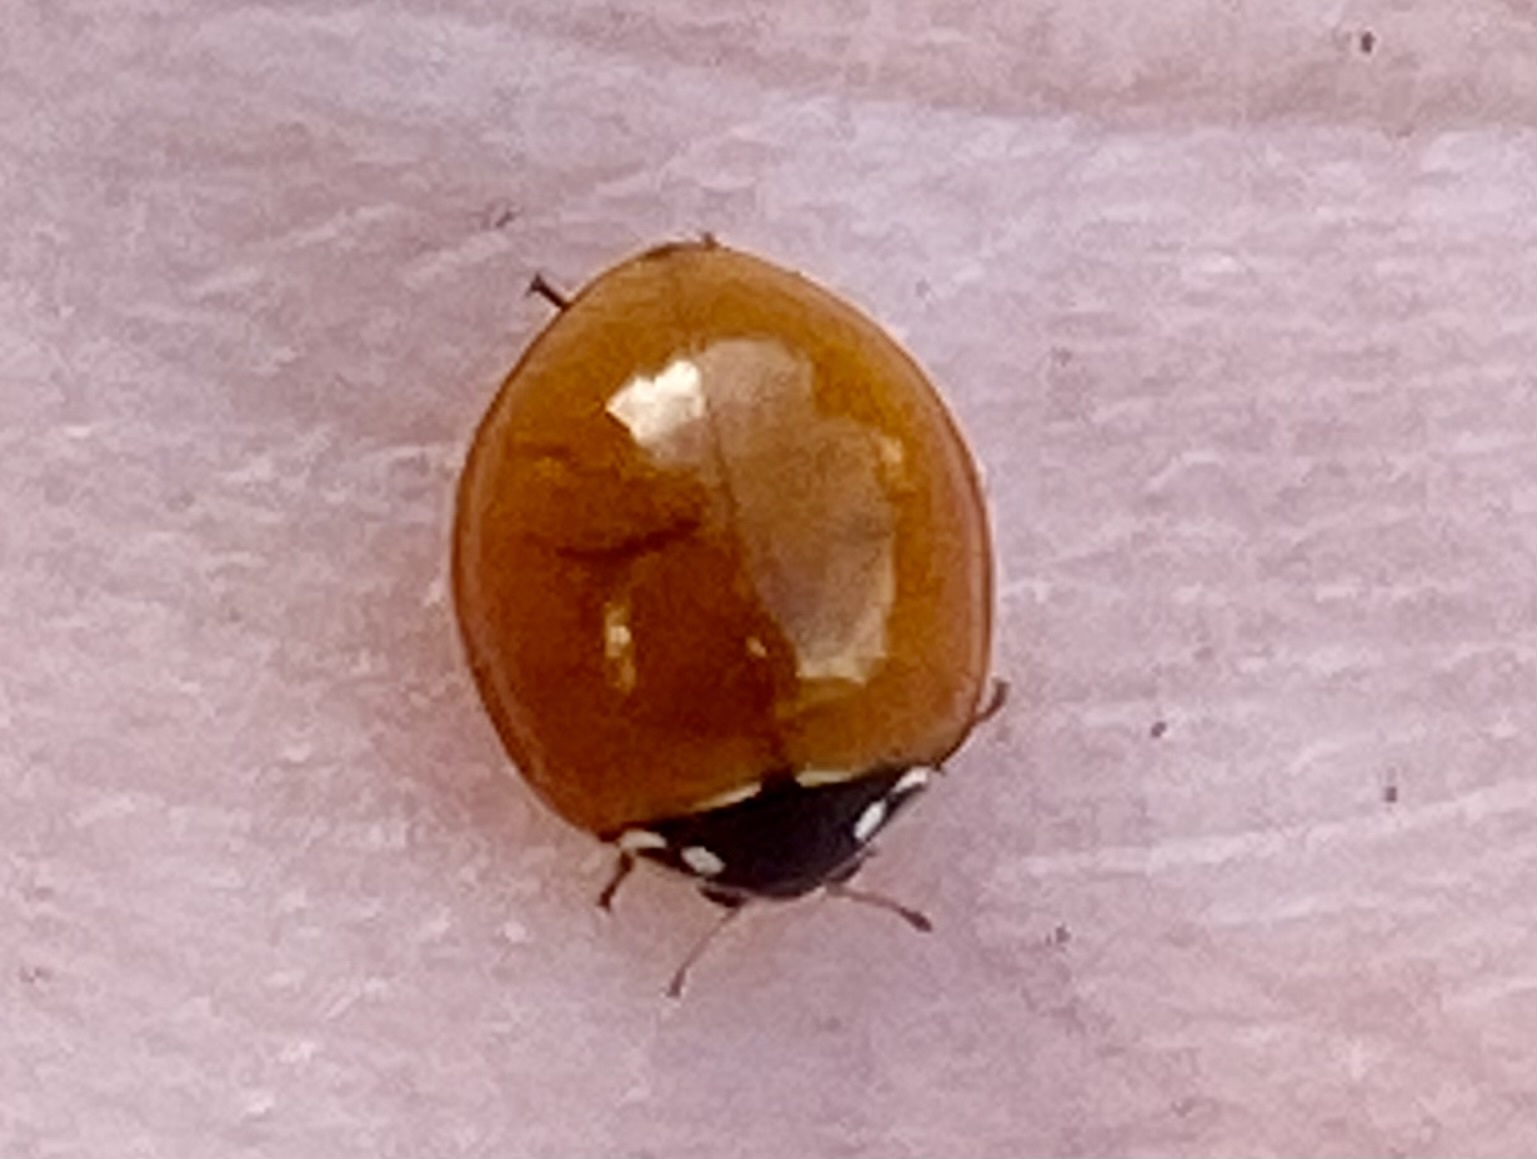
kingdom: Animalia
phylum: Arthropoda
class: Insecta
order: Coleoptera
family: Coccinellidae
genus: Cycloneda
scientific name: Cycloneda sanguinea
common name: Ladybird beetle
